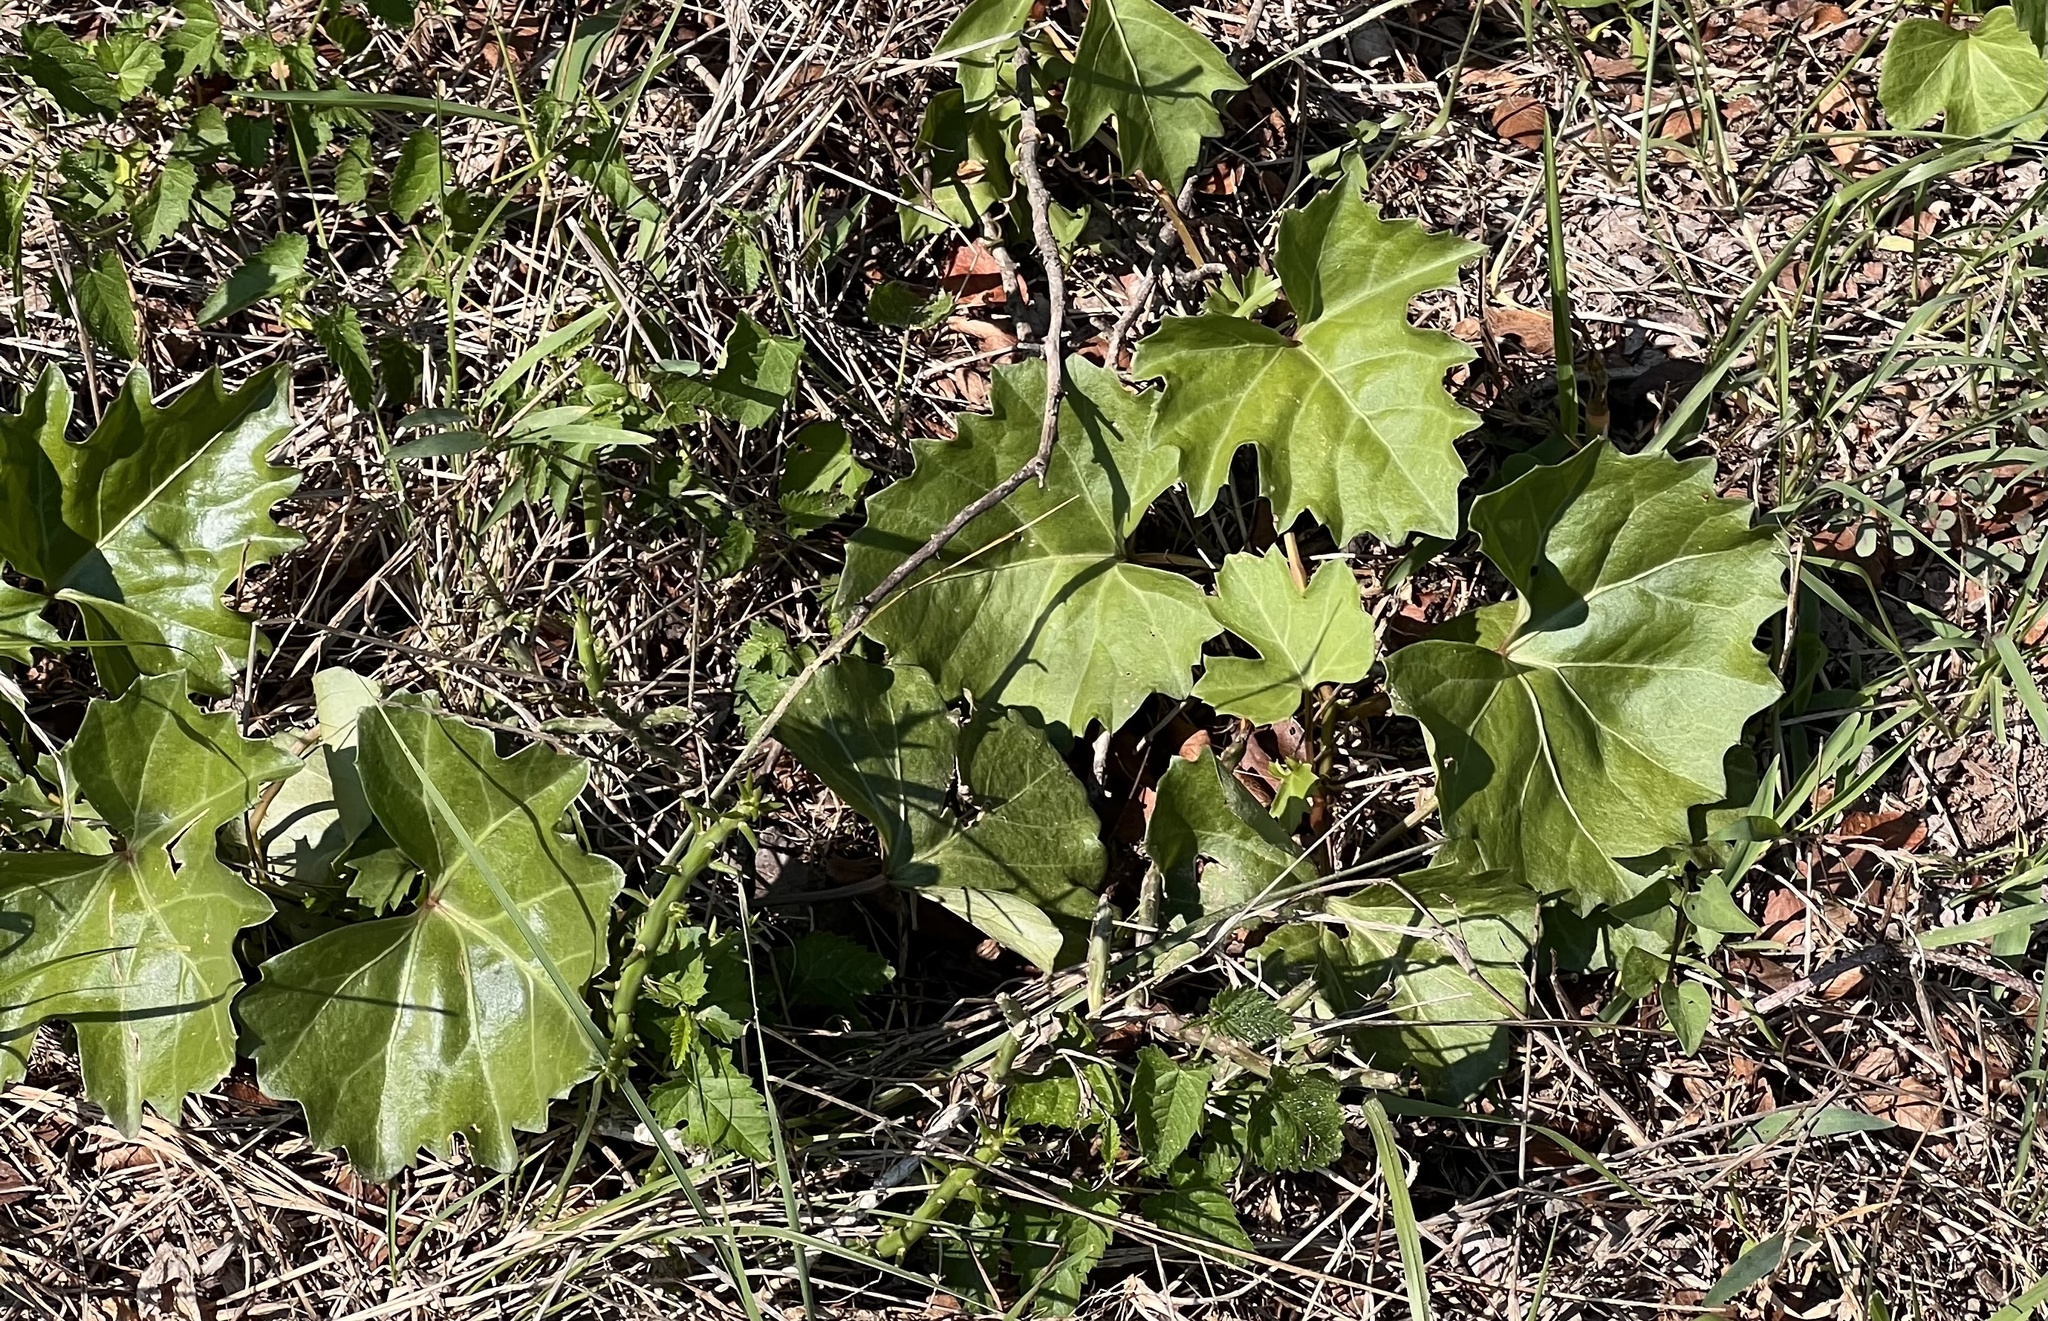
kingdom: Plantae
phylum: Tracheophyta
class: Magnoliopsida
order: Vitales
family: Vitaceae
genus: Cissus
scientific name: Cissus trifoliata
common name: Vine-sorrel
